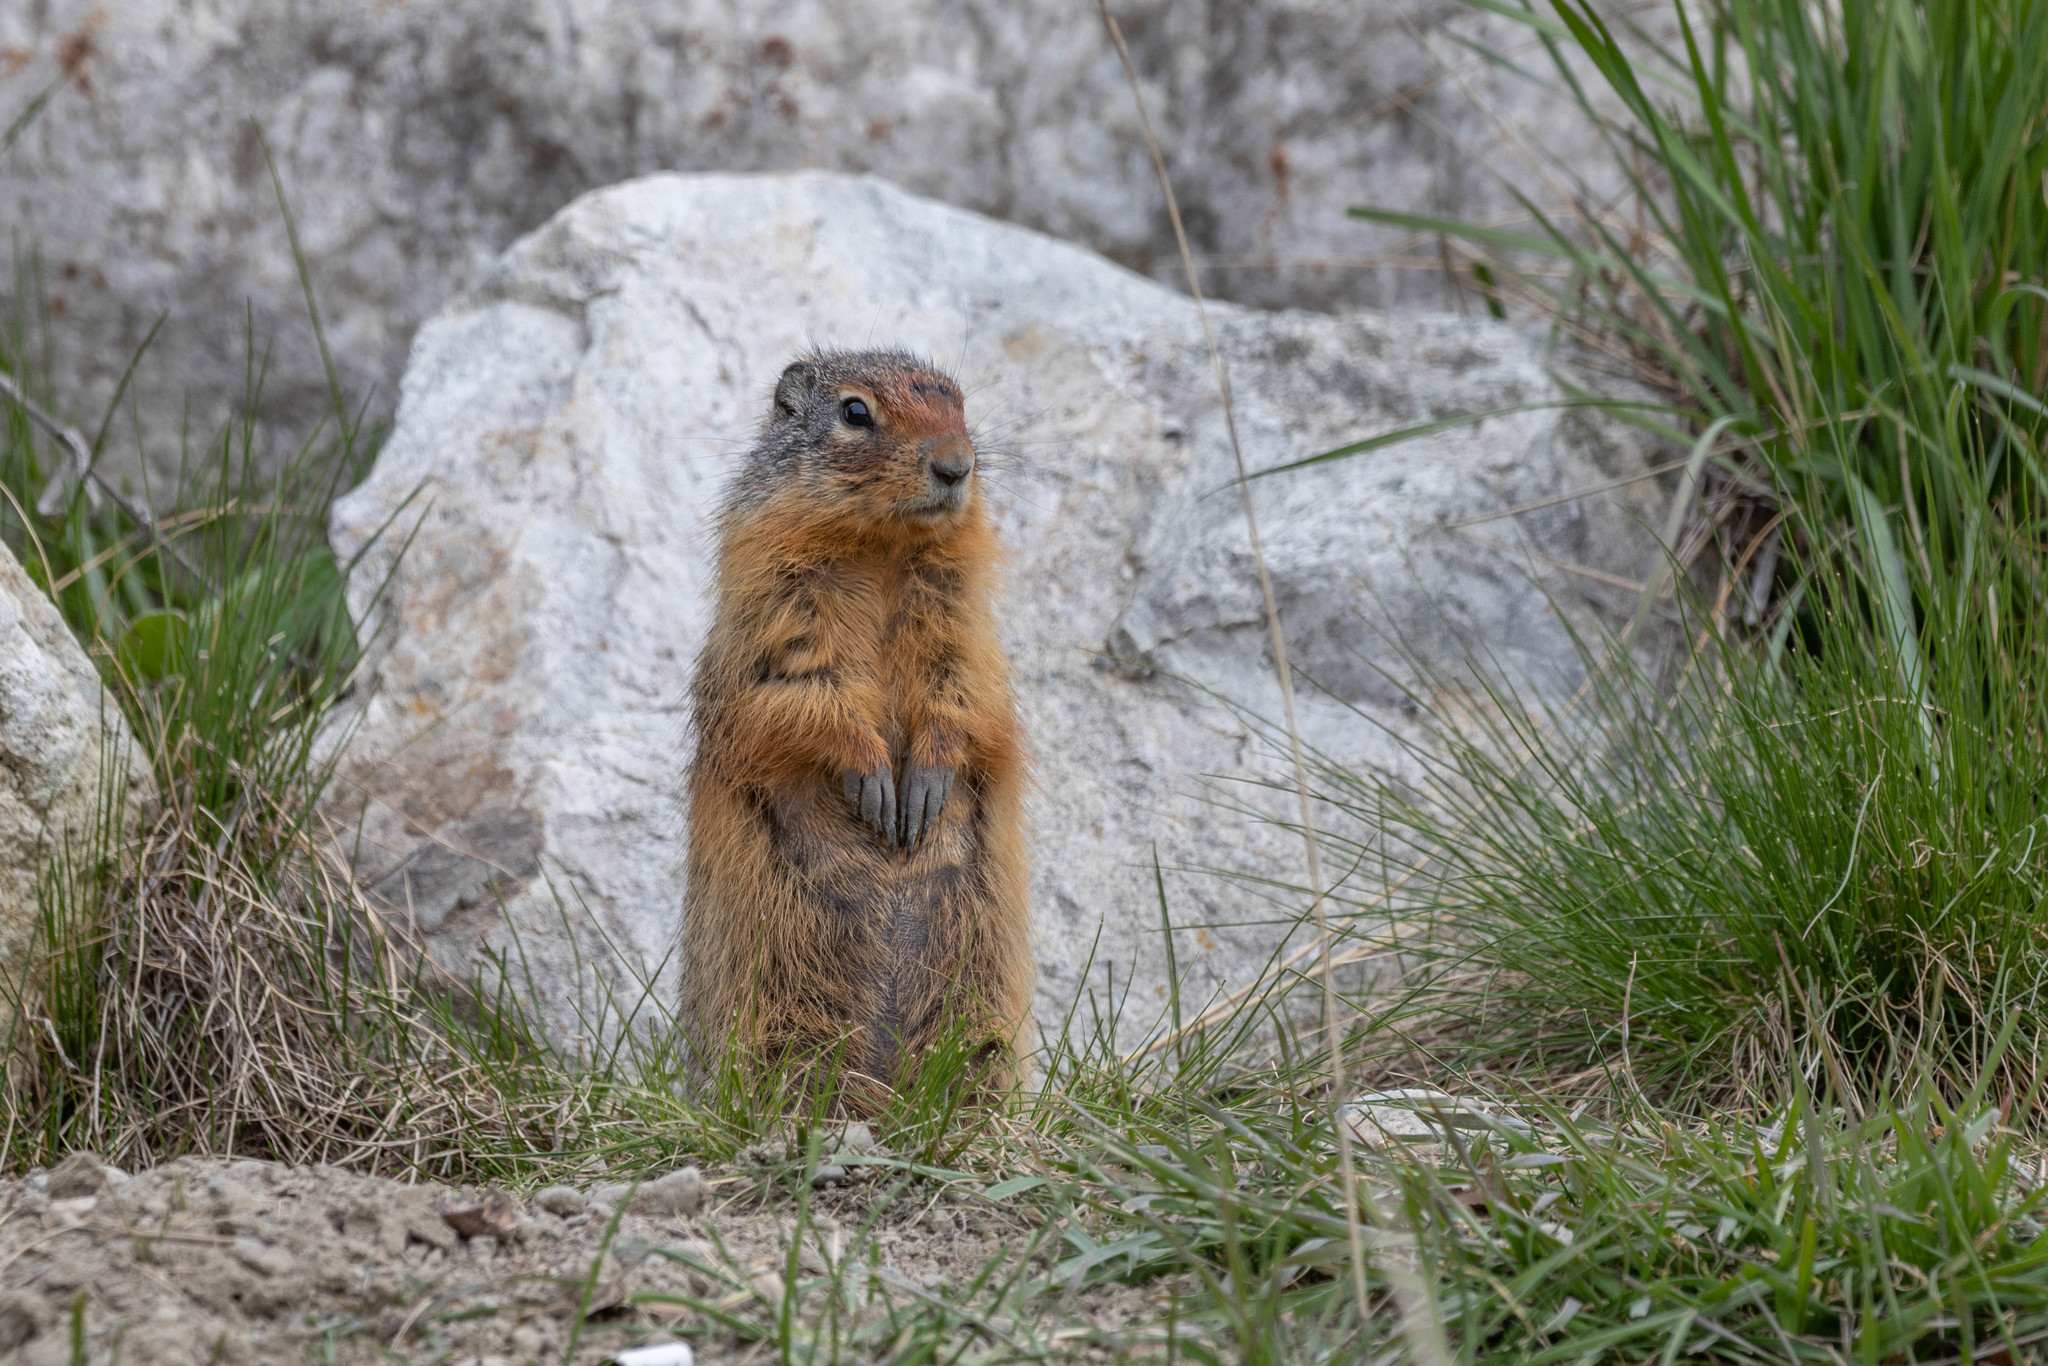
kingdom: Animalia
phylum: Chordata
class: Mammalia
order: Rodentia
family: Sciuridae
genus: Urocitellus
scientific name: Urocitellus columbianus
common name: Columbian ground squirrel
